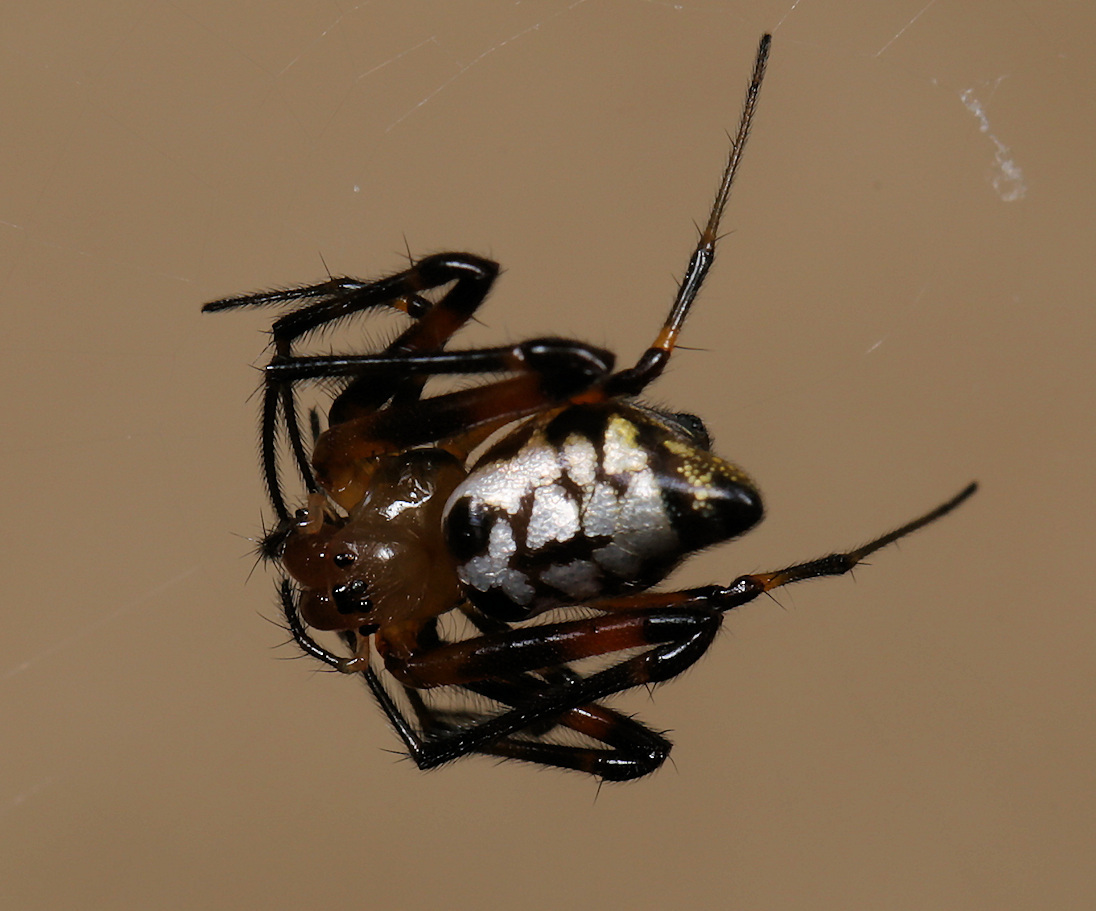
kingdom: Animalia
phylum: Arthropoda
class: Arachnida
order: Araneae
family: Tetragnathidae
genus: Leucauge
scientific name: Leucauge medjensis
